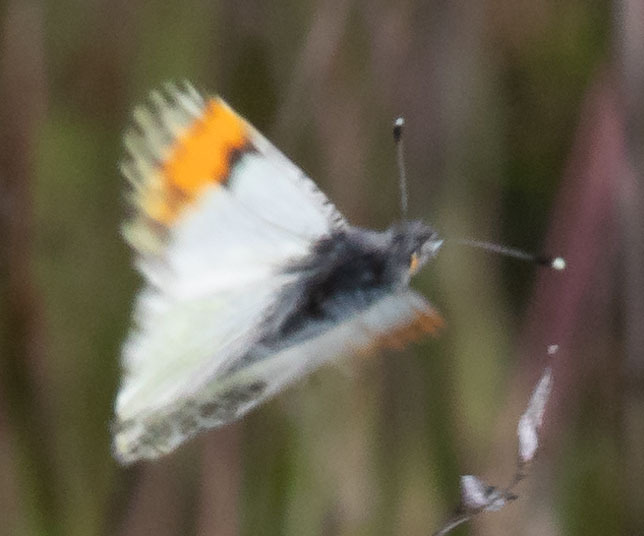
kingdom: Animalia
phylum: Arthropoda
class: Insecta
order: Lepidoptera
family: Pieridae
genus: Anthocharis
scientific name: Anthocharis sara
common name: Sara's orangetip
